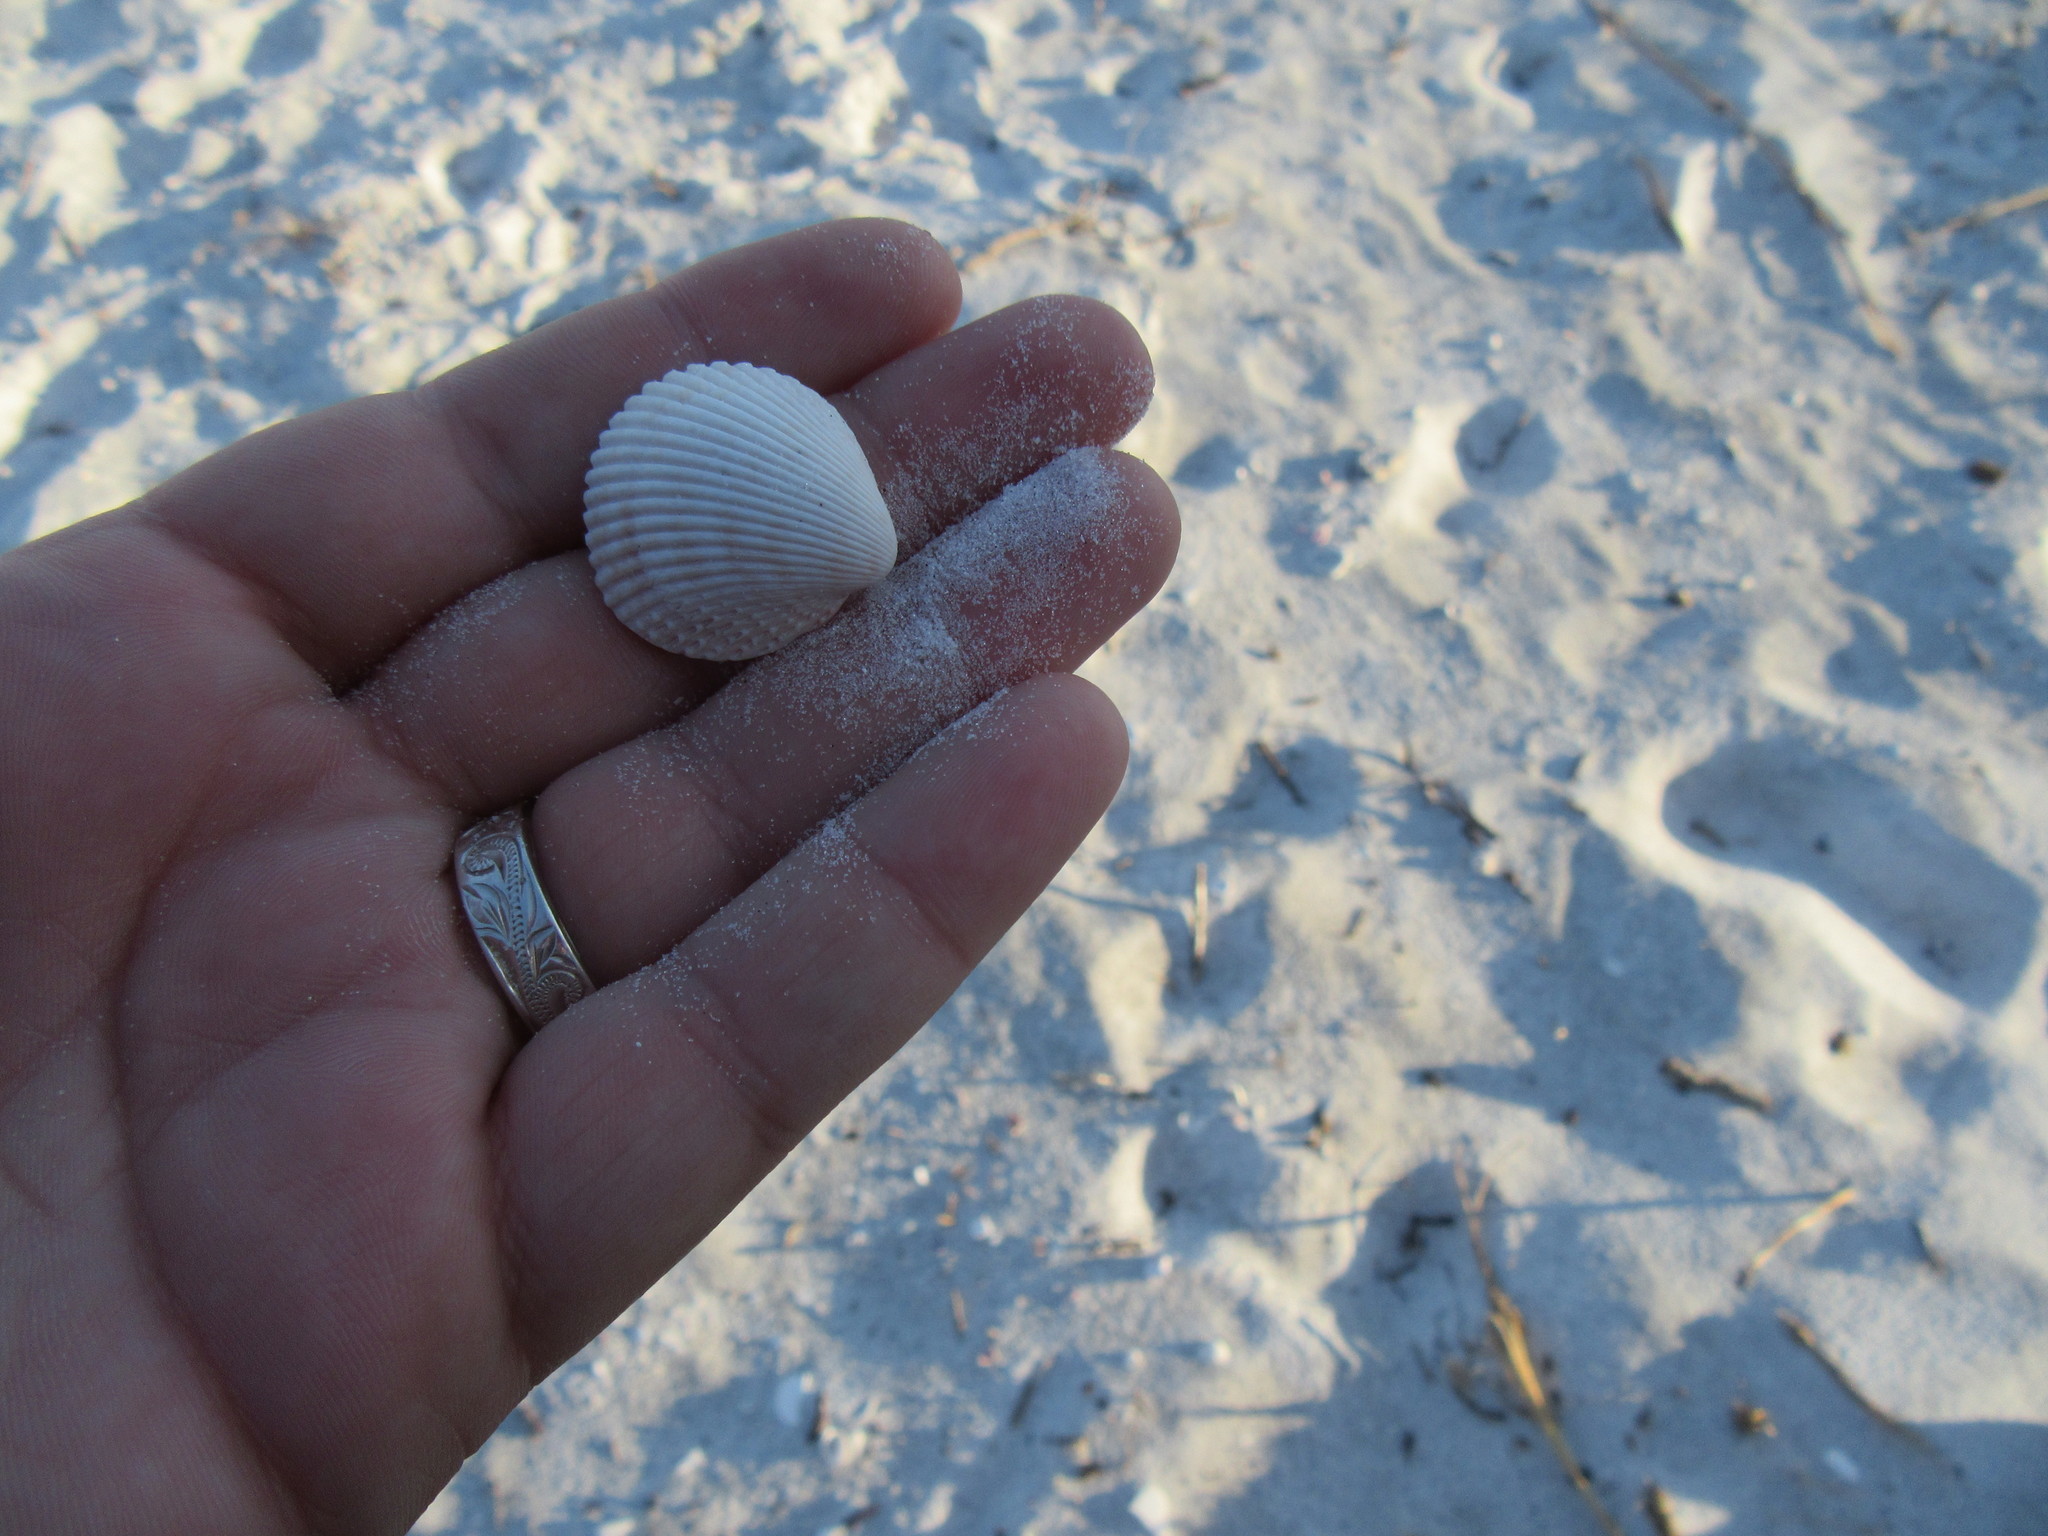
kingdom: Animalia
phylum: Mollusca
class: Bivalvia
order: Cardiida
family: Cardiidae
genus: Trachycardium
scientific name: Trachycardium egmontianum
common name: Florida pricklycockle
